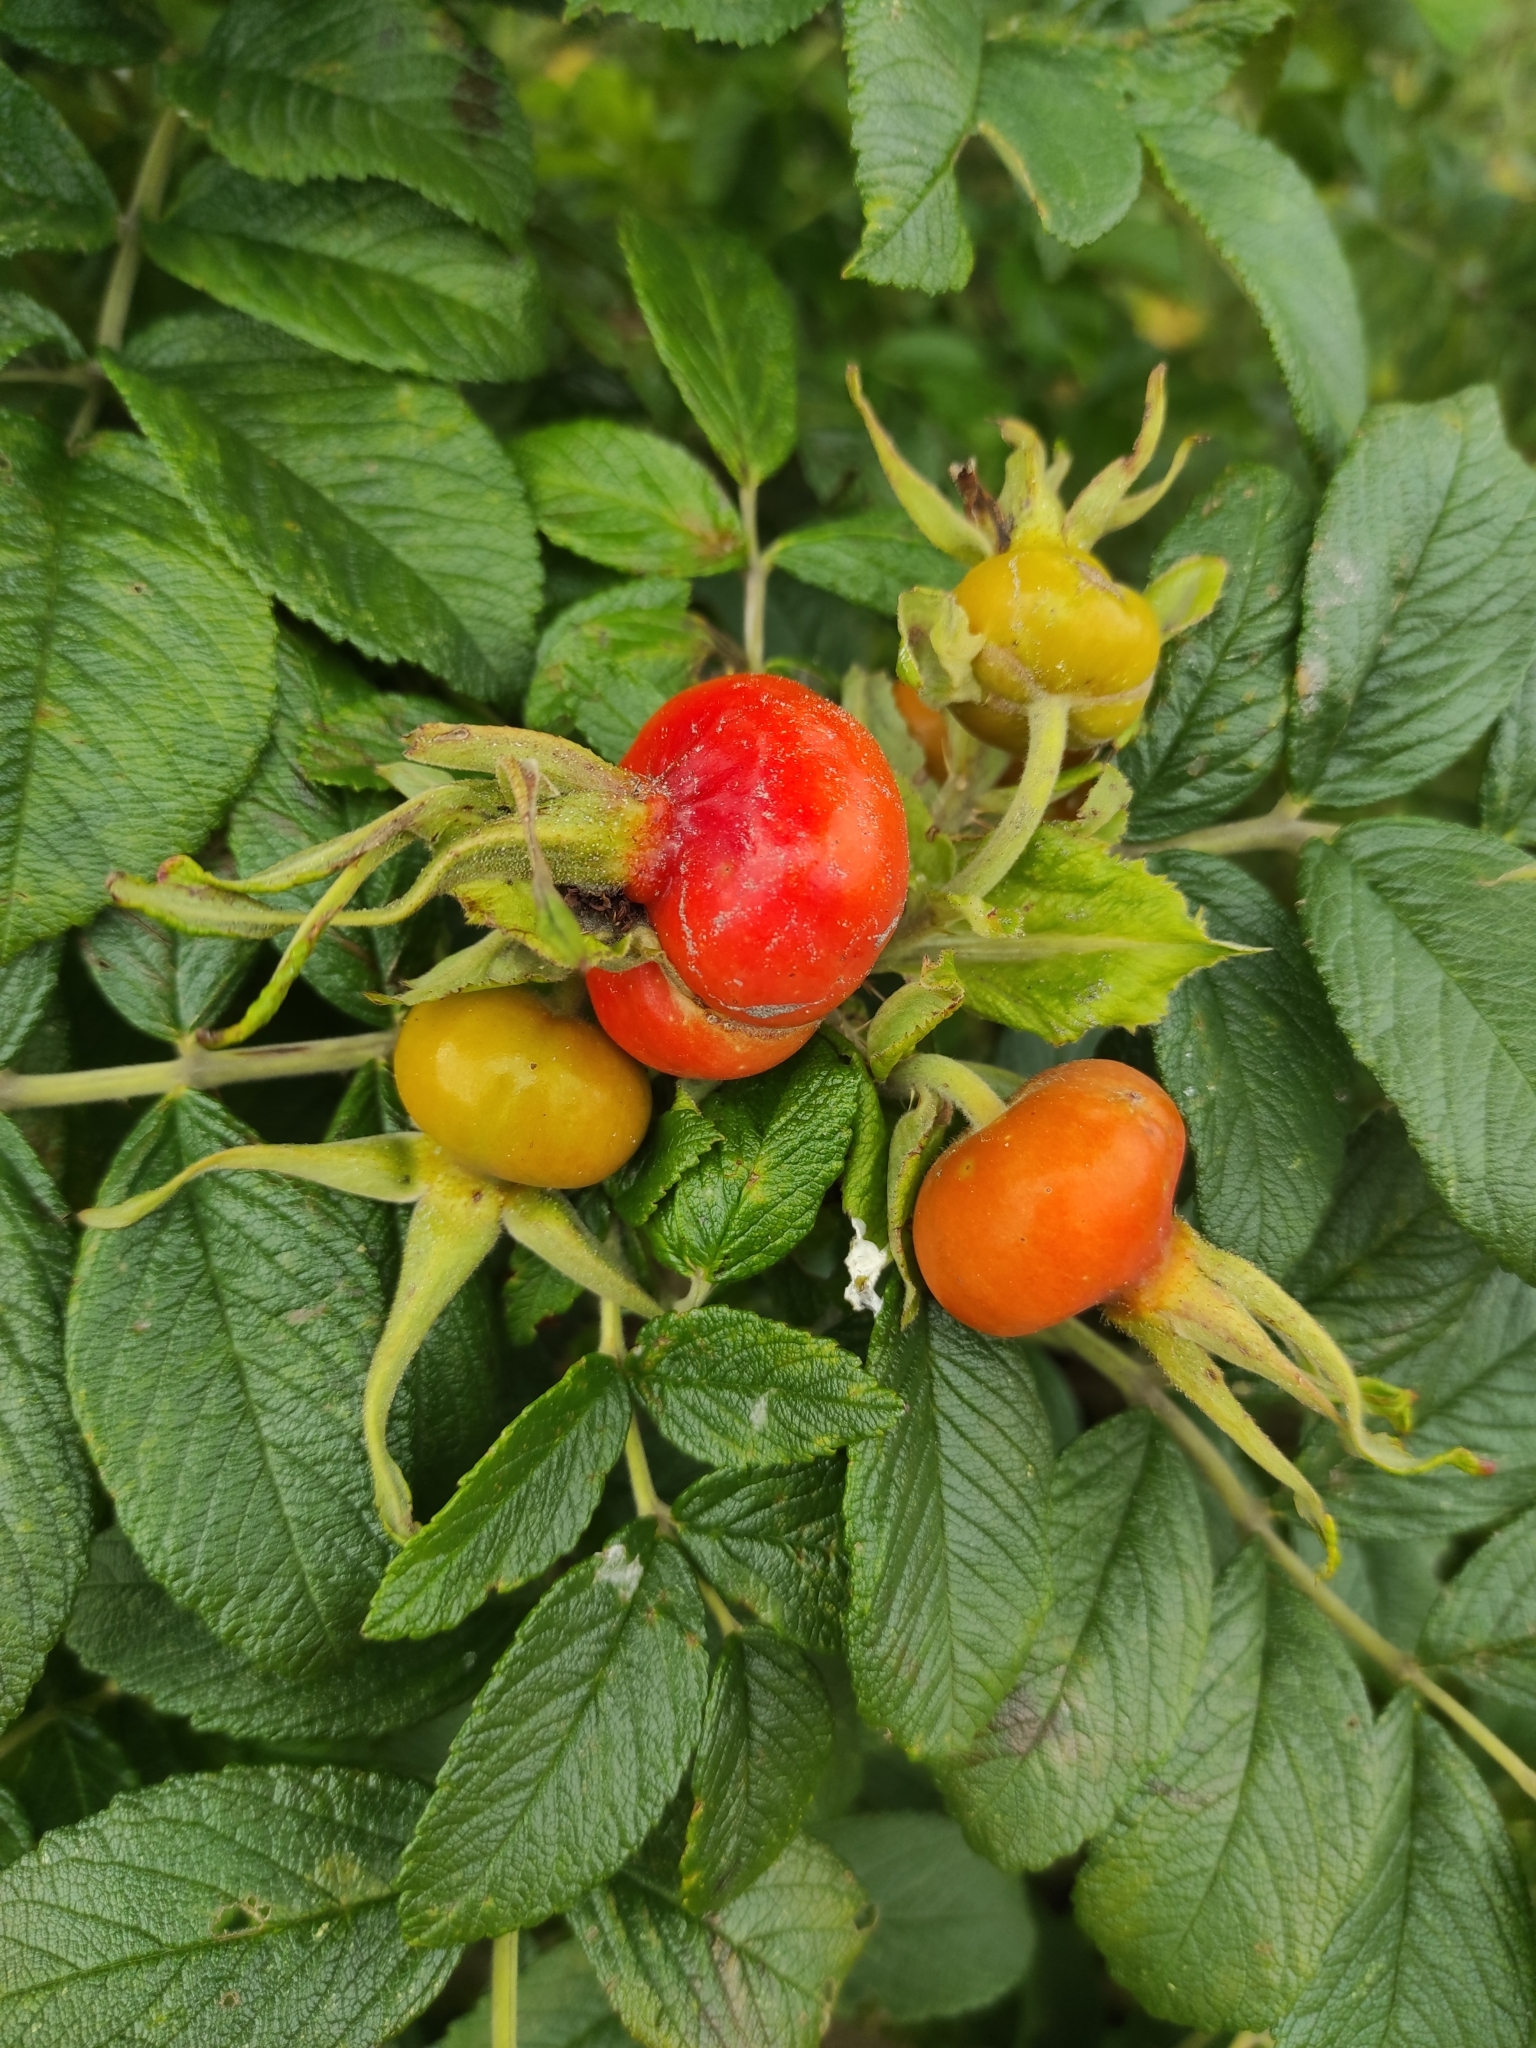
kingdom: Plantae
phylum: Tracheophyta
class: Magnoliopsida
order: Rosales
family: Rosaceae
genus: Rosa
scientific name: Rosa rugosa
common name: Japanese rose
